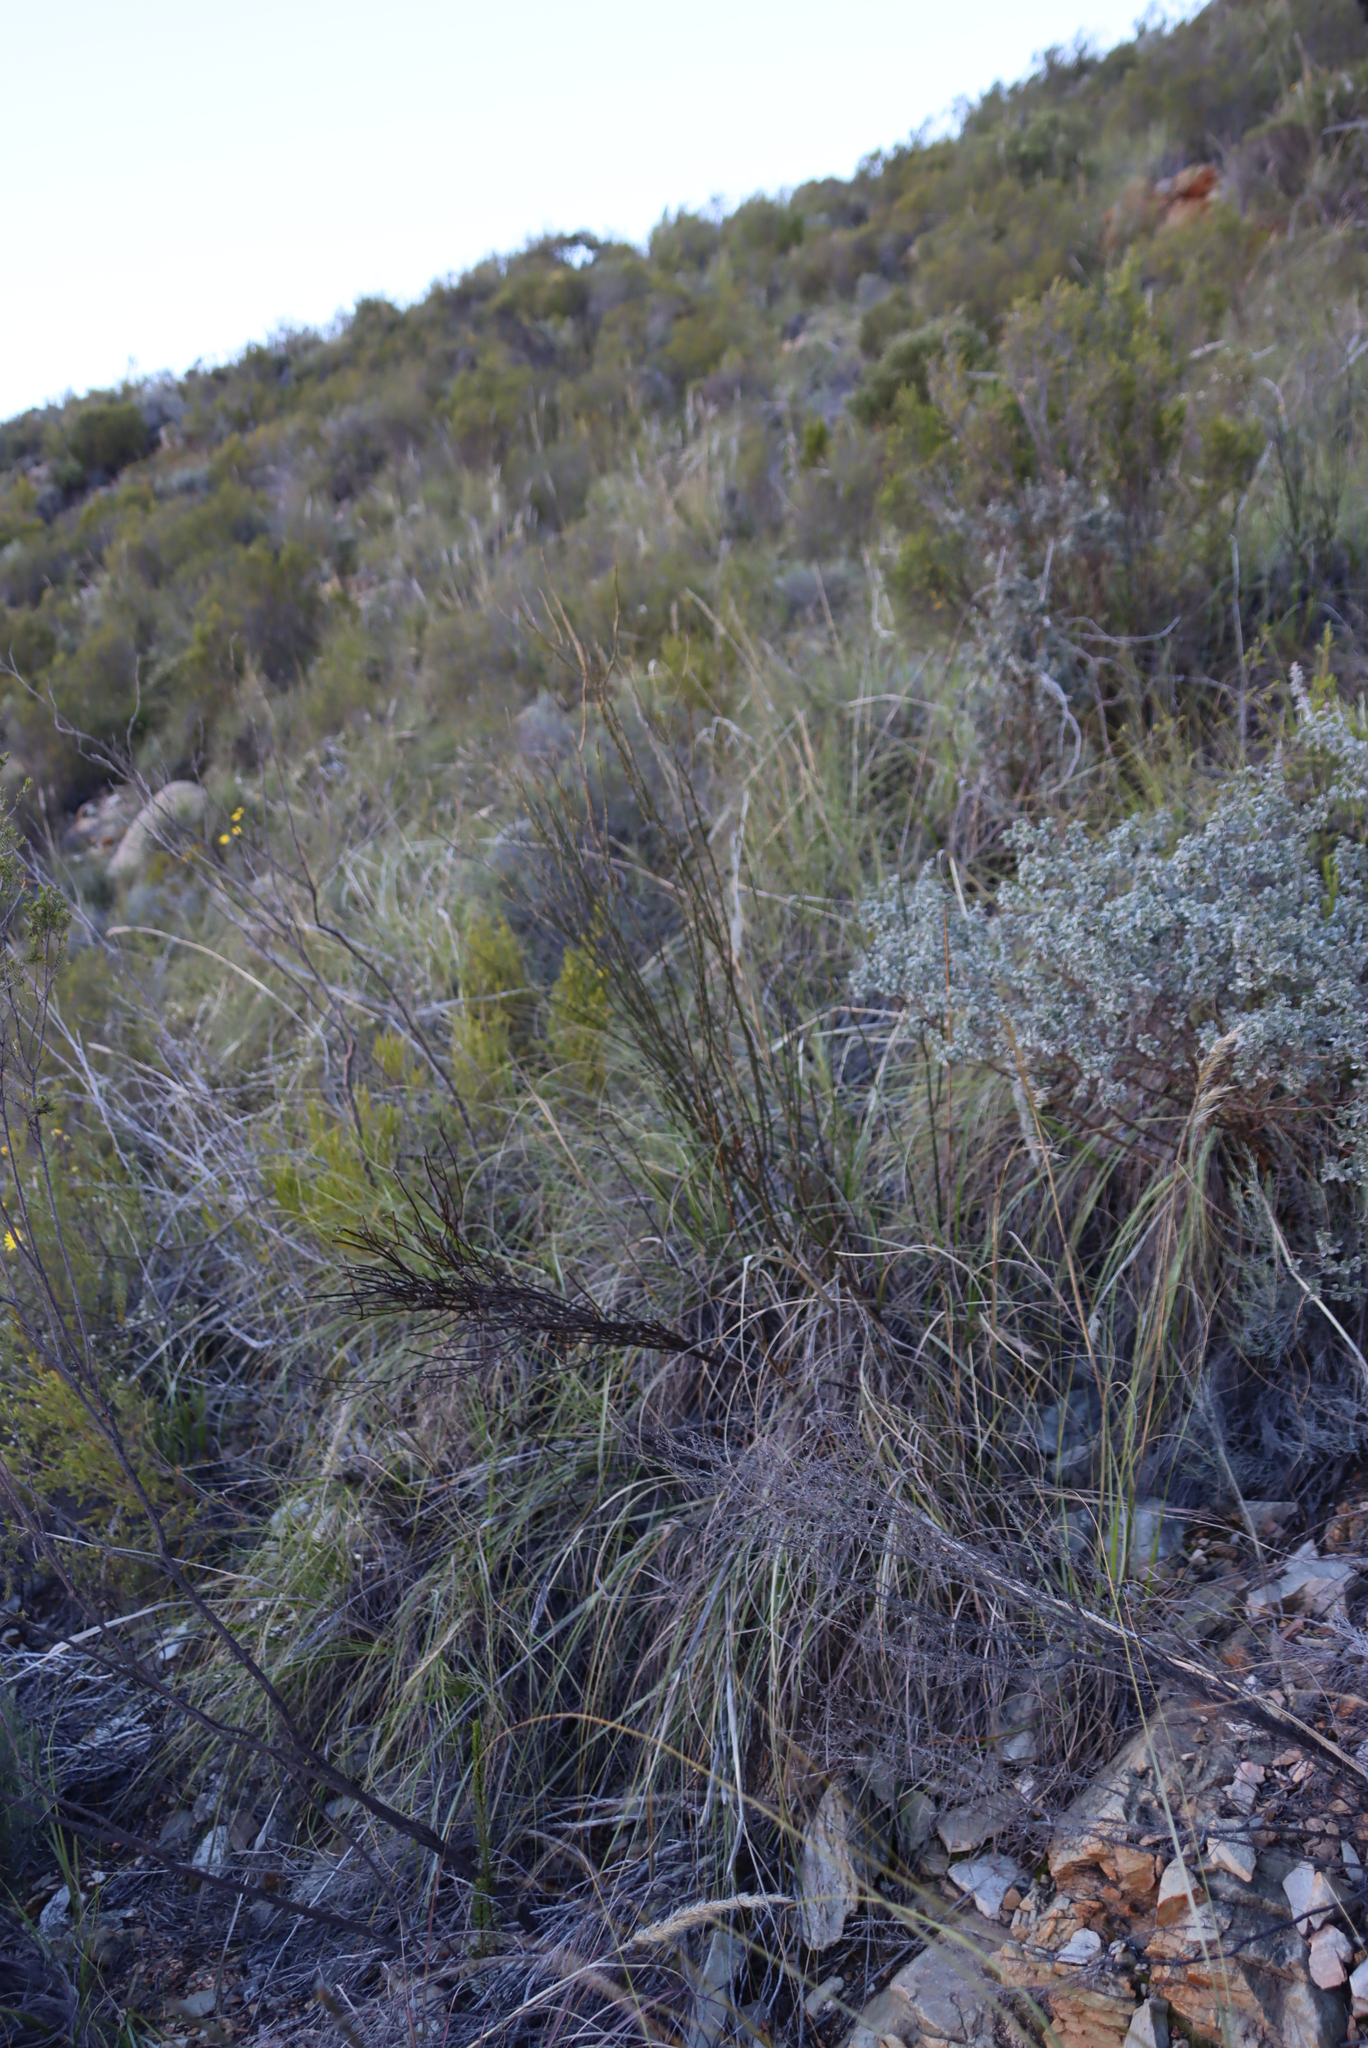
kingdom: Plantae
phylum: Tracheophyta
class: Magnoliopsida
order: Solanales
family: Montiniaceae
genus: Montinia
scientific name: Montinia caryophyllacea
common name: Wild clove-bush
